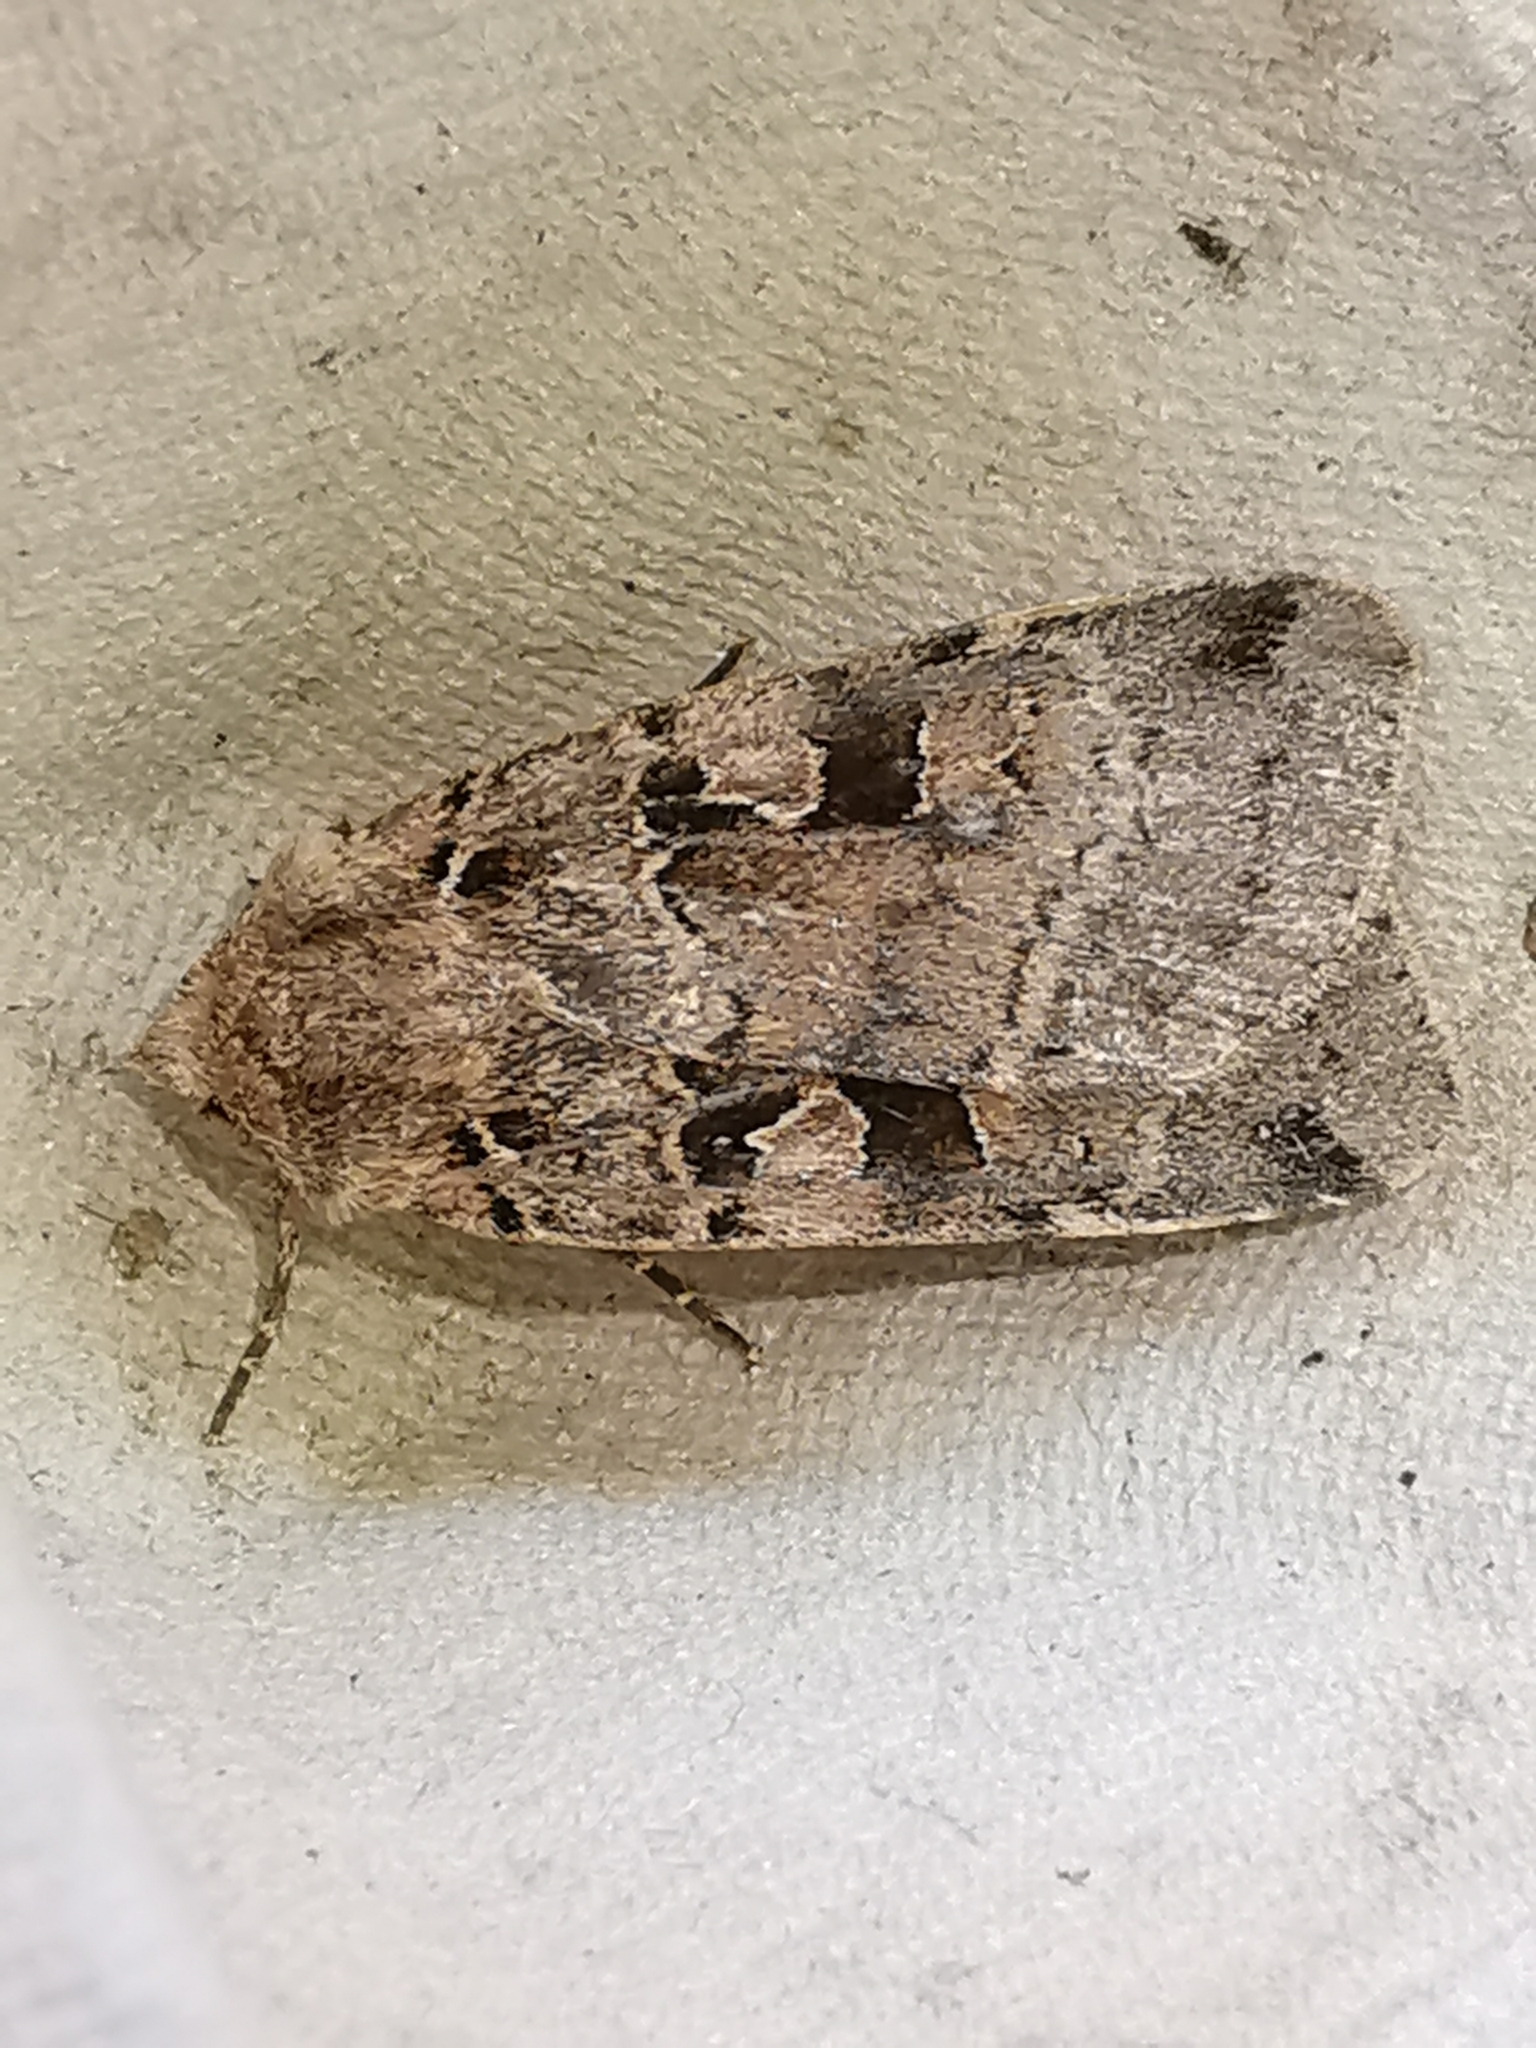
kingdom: Animalia
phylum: Arthropoda
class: Insecta
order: Lepidoptera
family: Noctuidae
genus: Xestia
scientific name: Xestia triangulum
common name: Double square-spot
